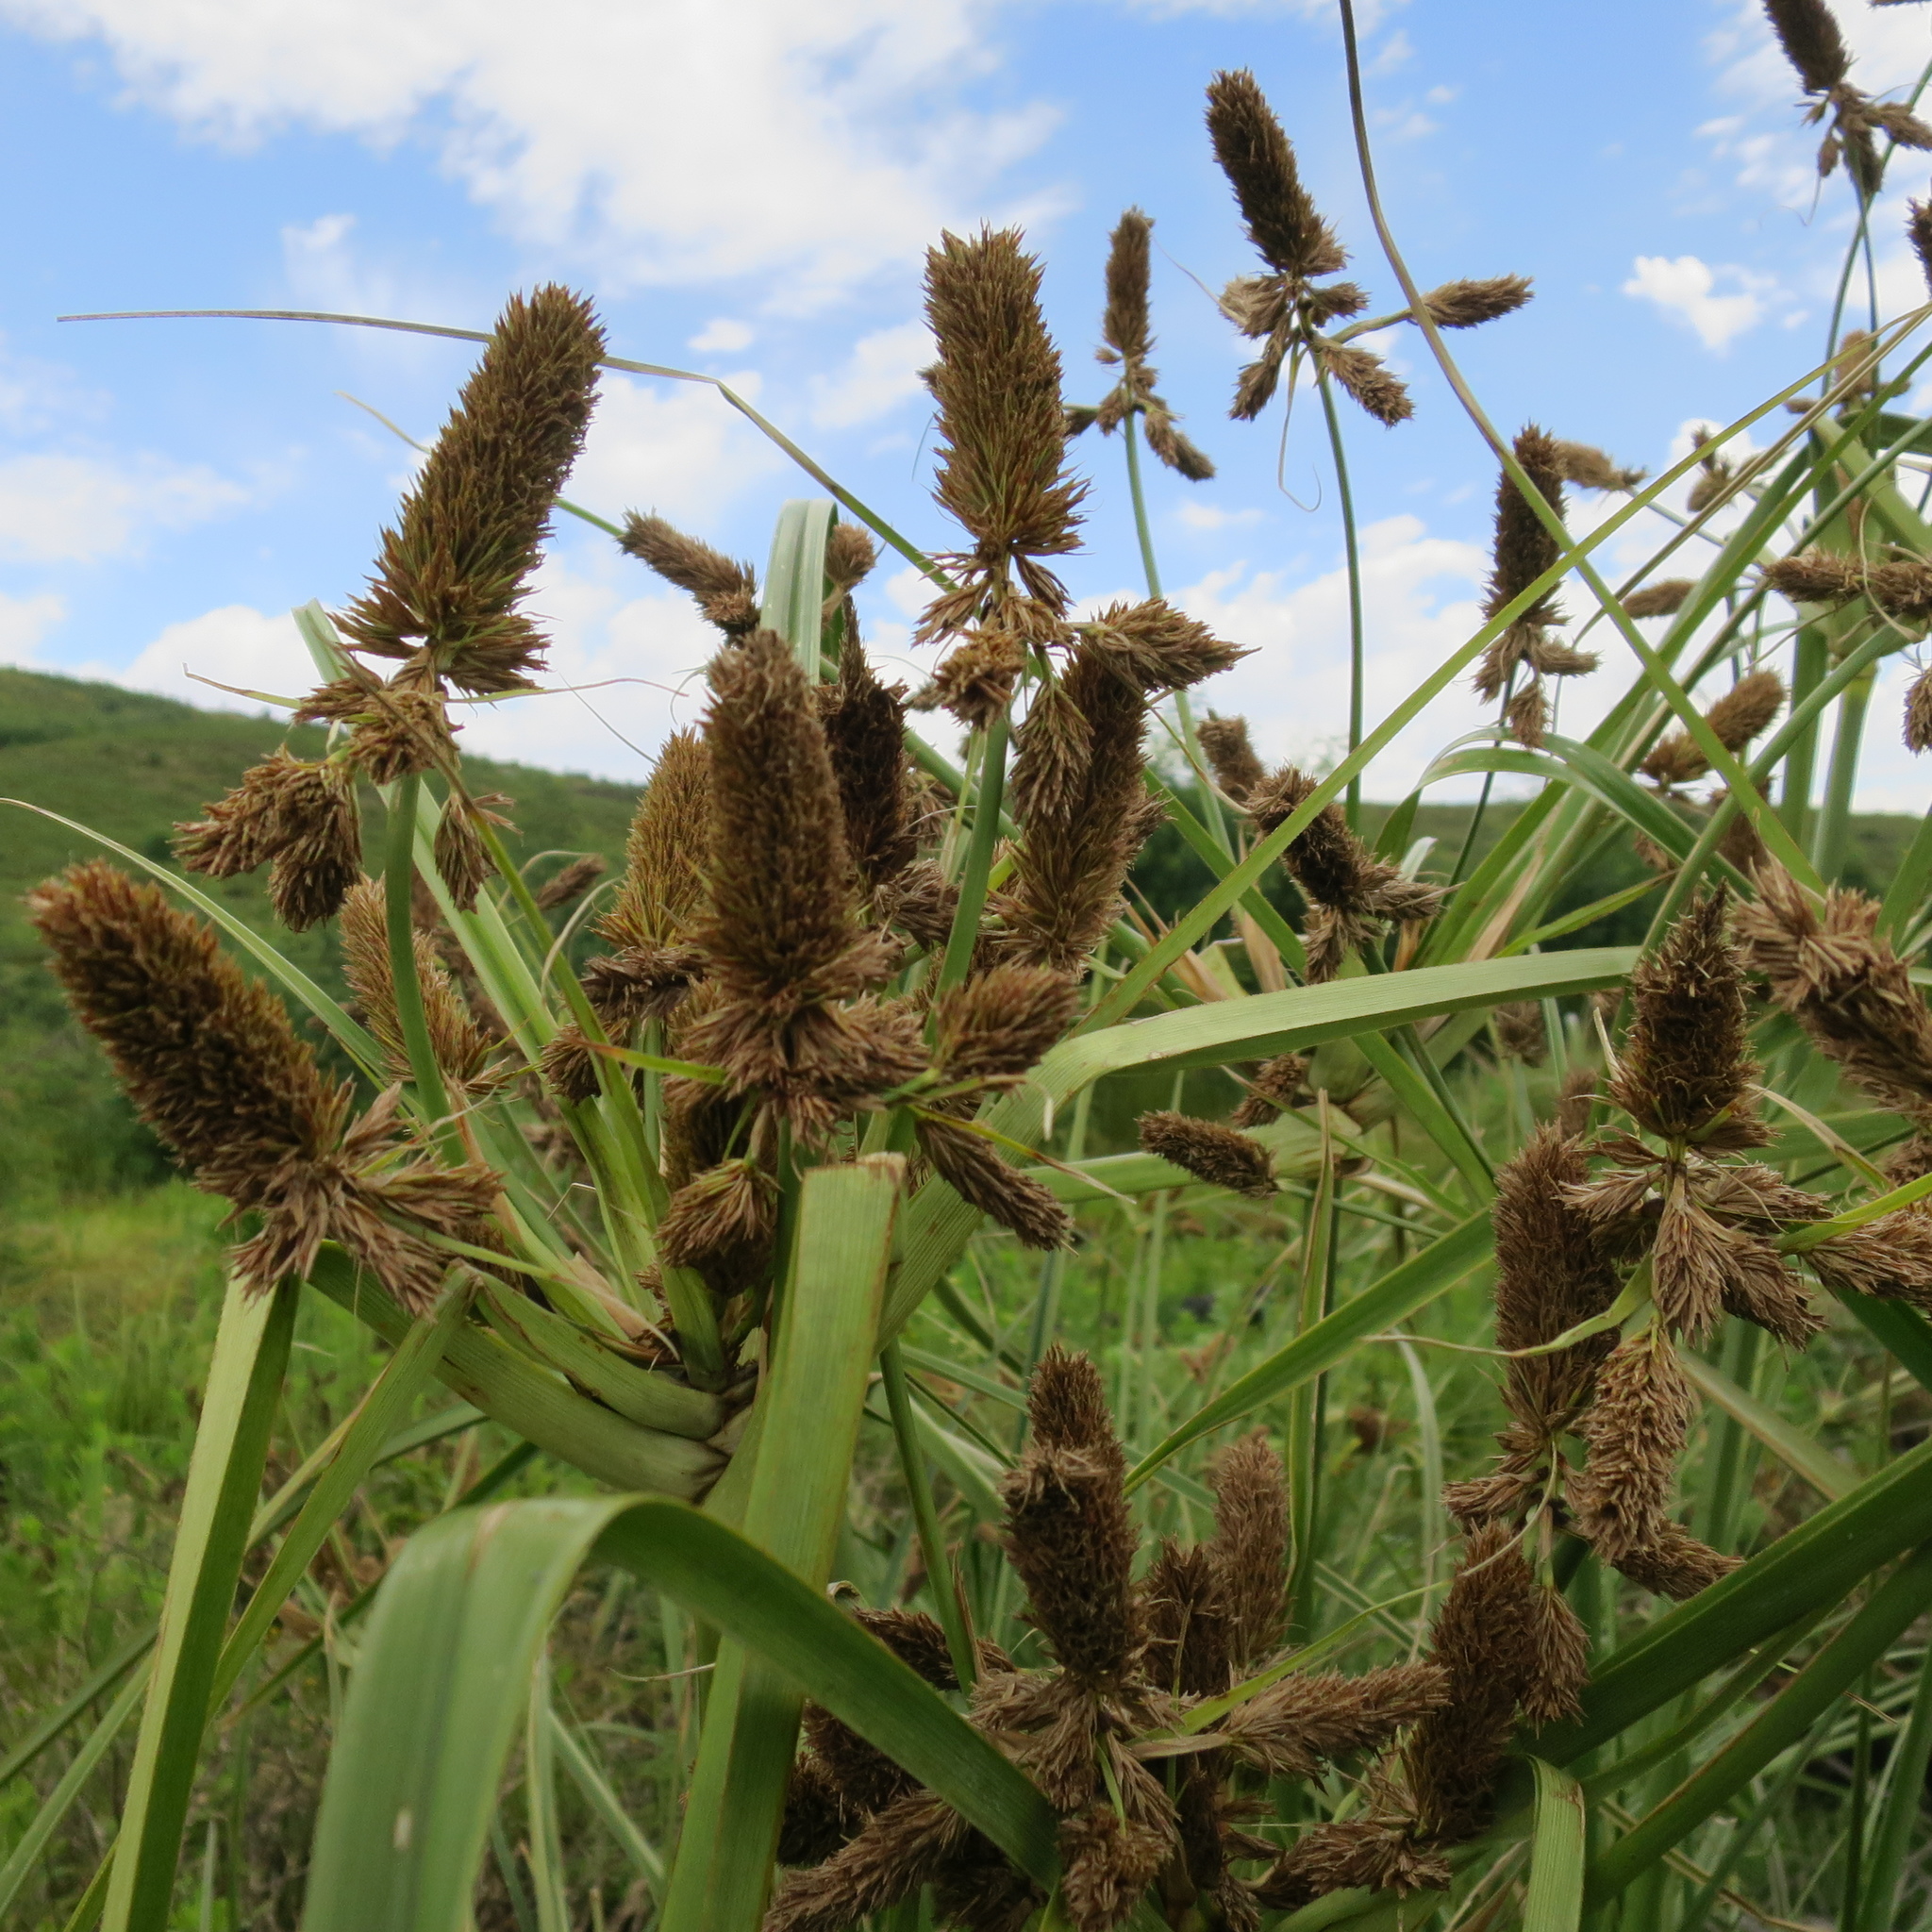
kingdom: Plantae
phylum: Tracheophyta
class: Liliopsida
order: Poales
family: Cyperaceae
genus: Cyperus
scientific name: Cyperus thunbergii
